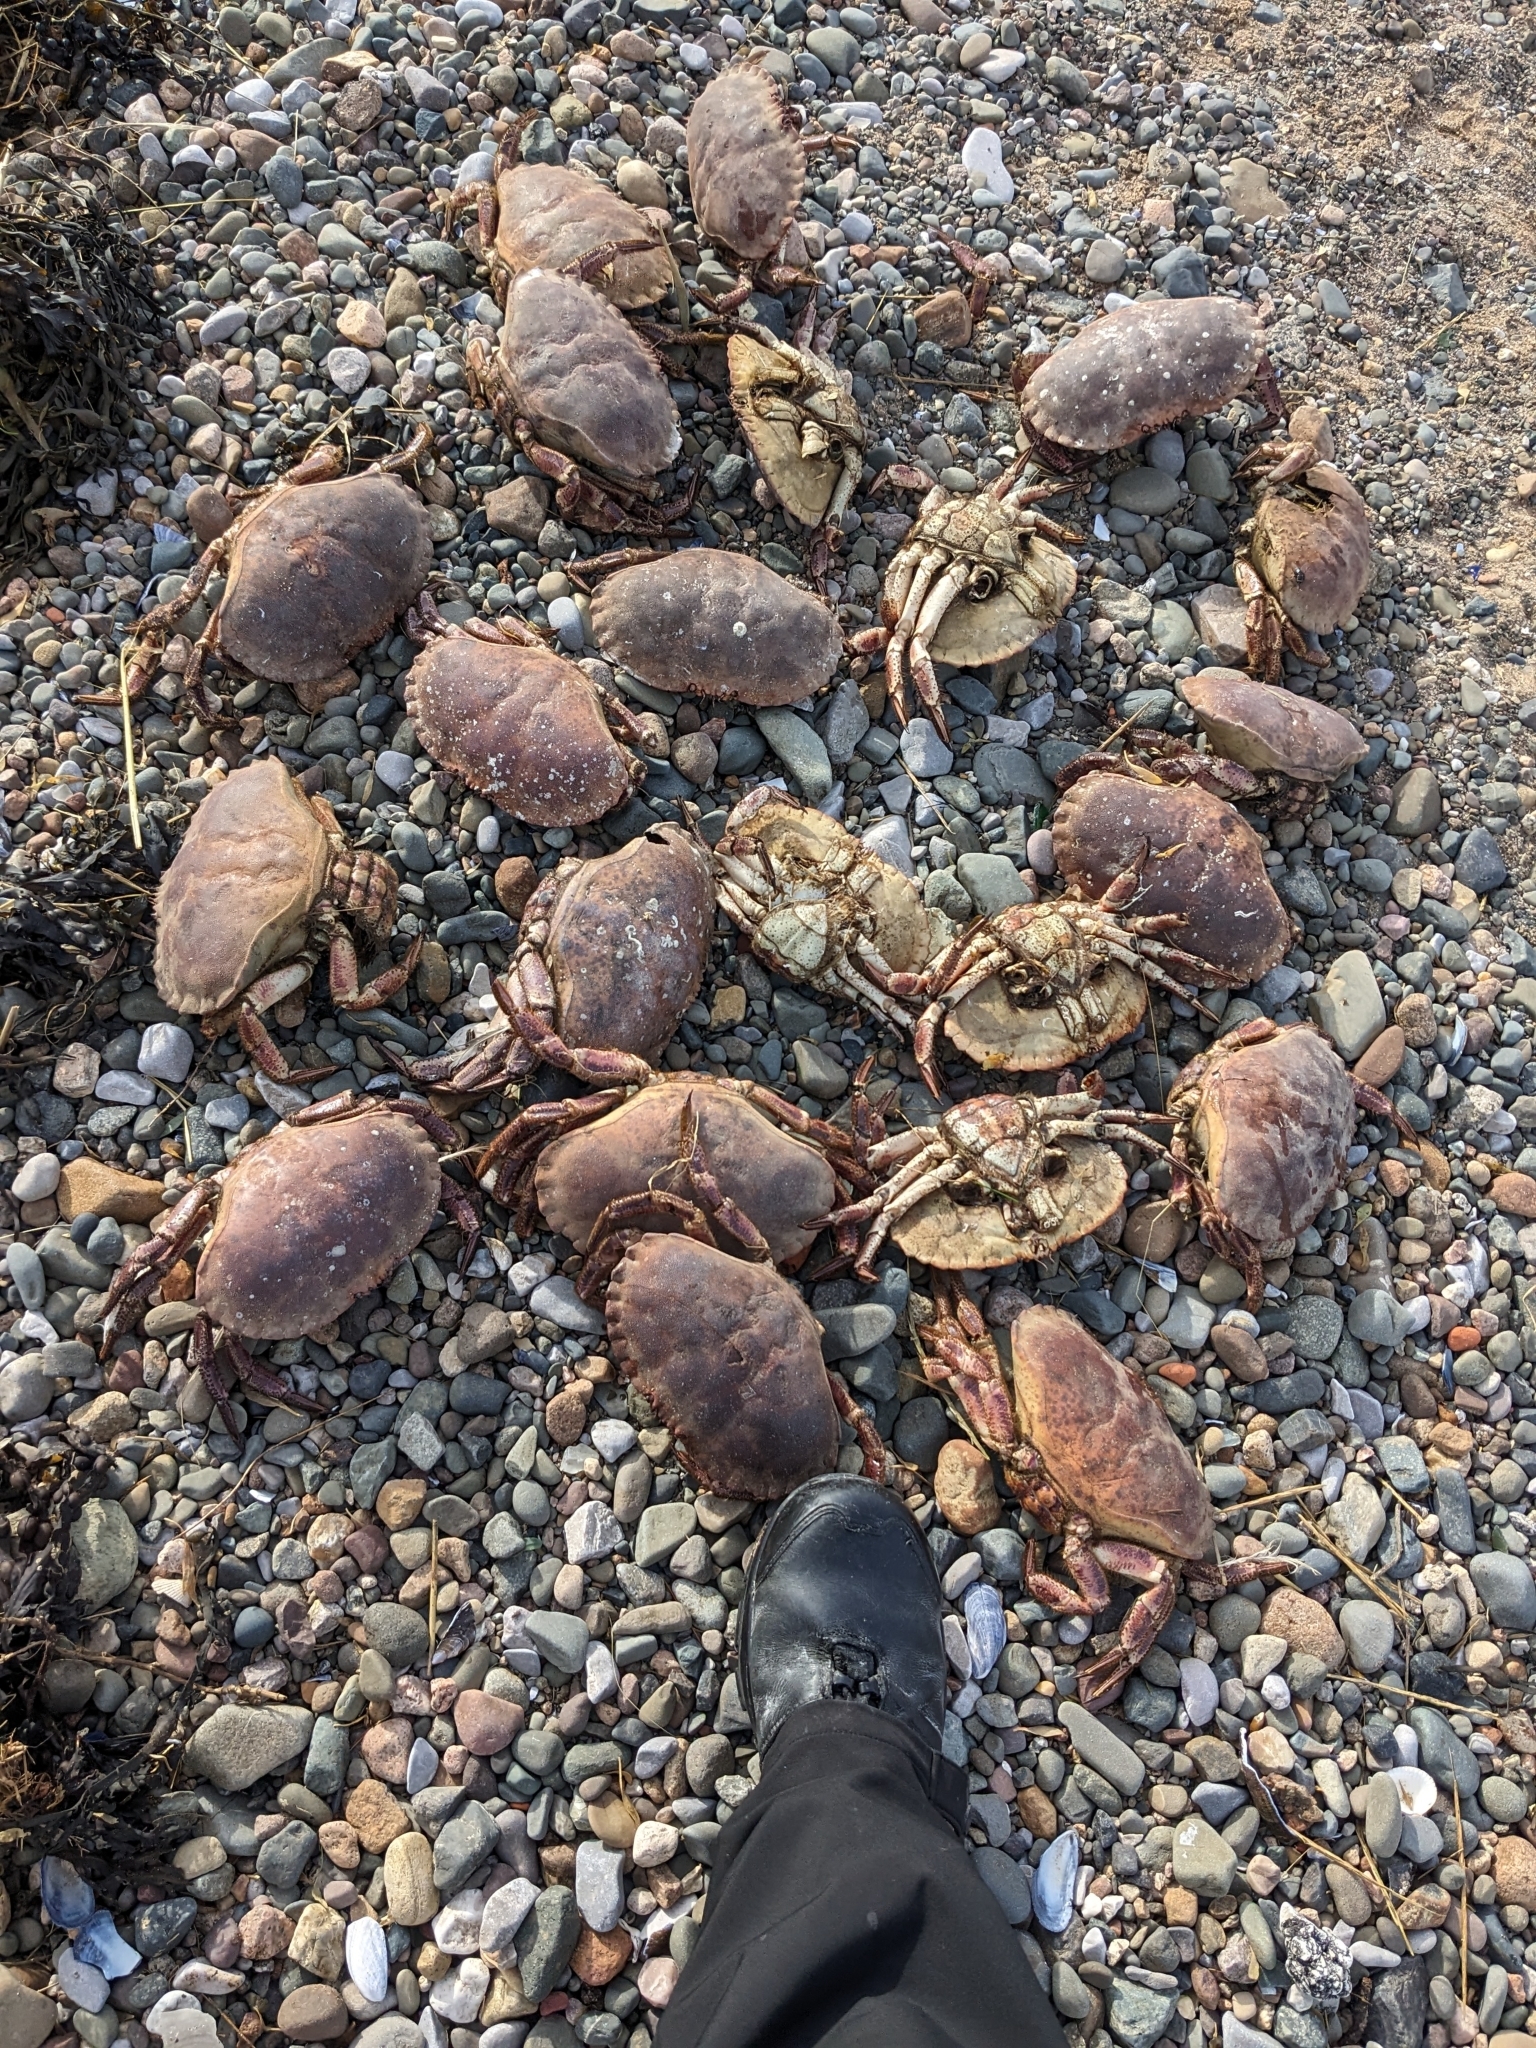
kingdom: Animalia
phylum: Arthropoda
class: Malacostraca
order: Decapoda
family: Cancridae
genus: Cancer
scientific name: Cancer pagurus
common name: Edible crab
